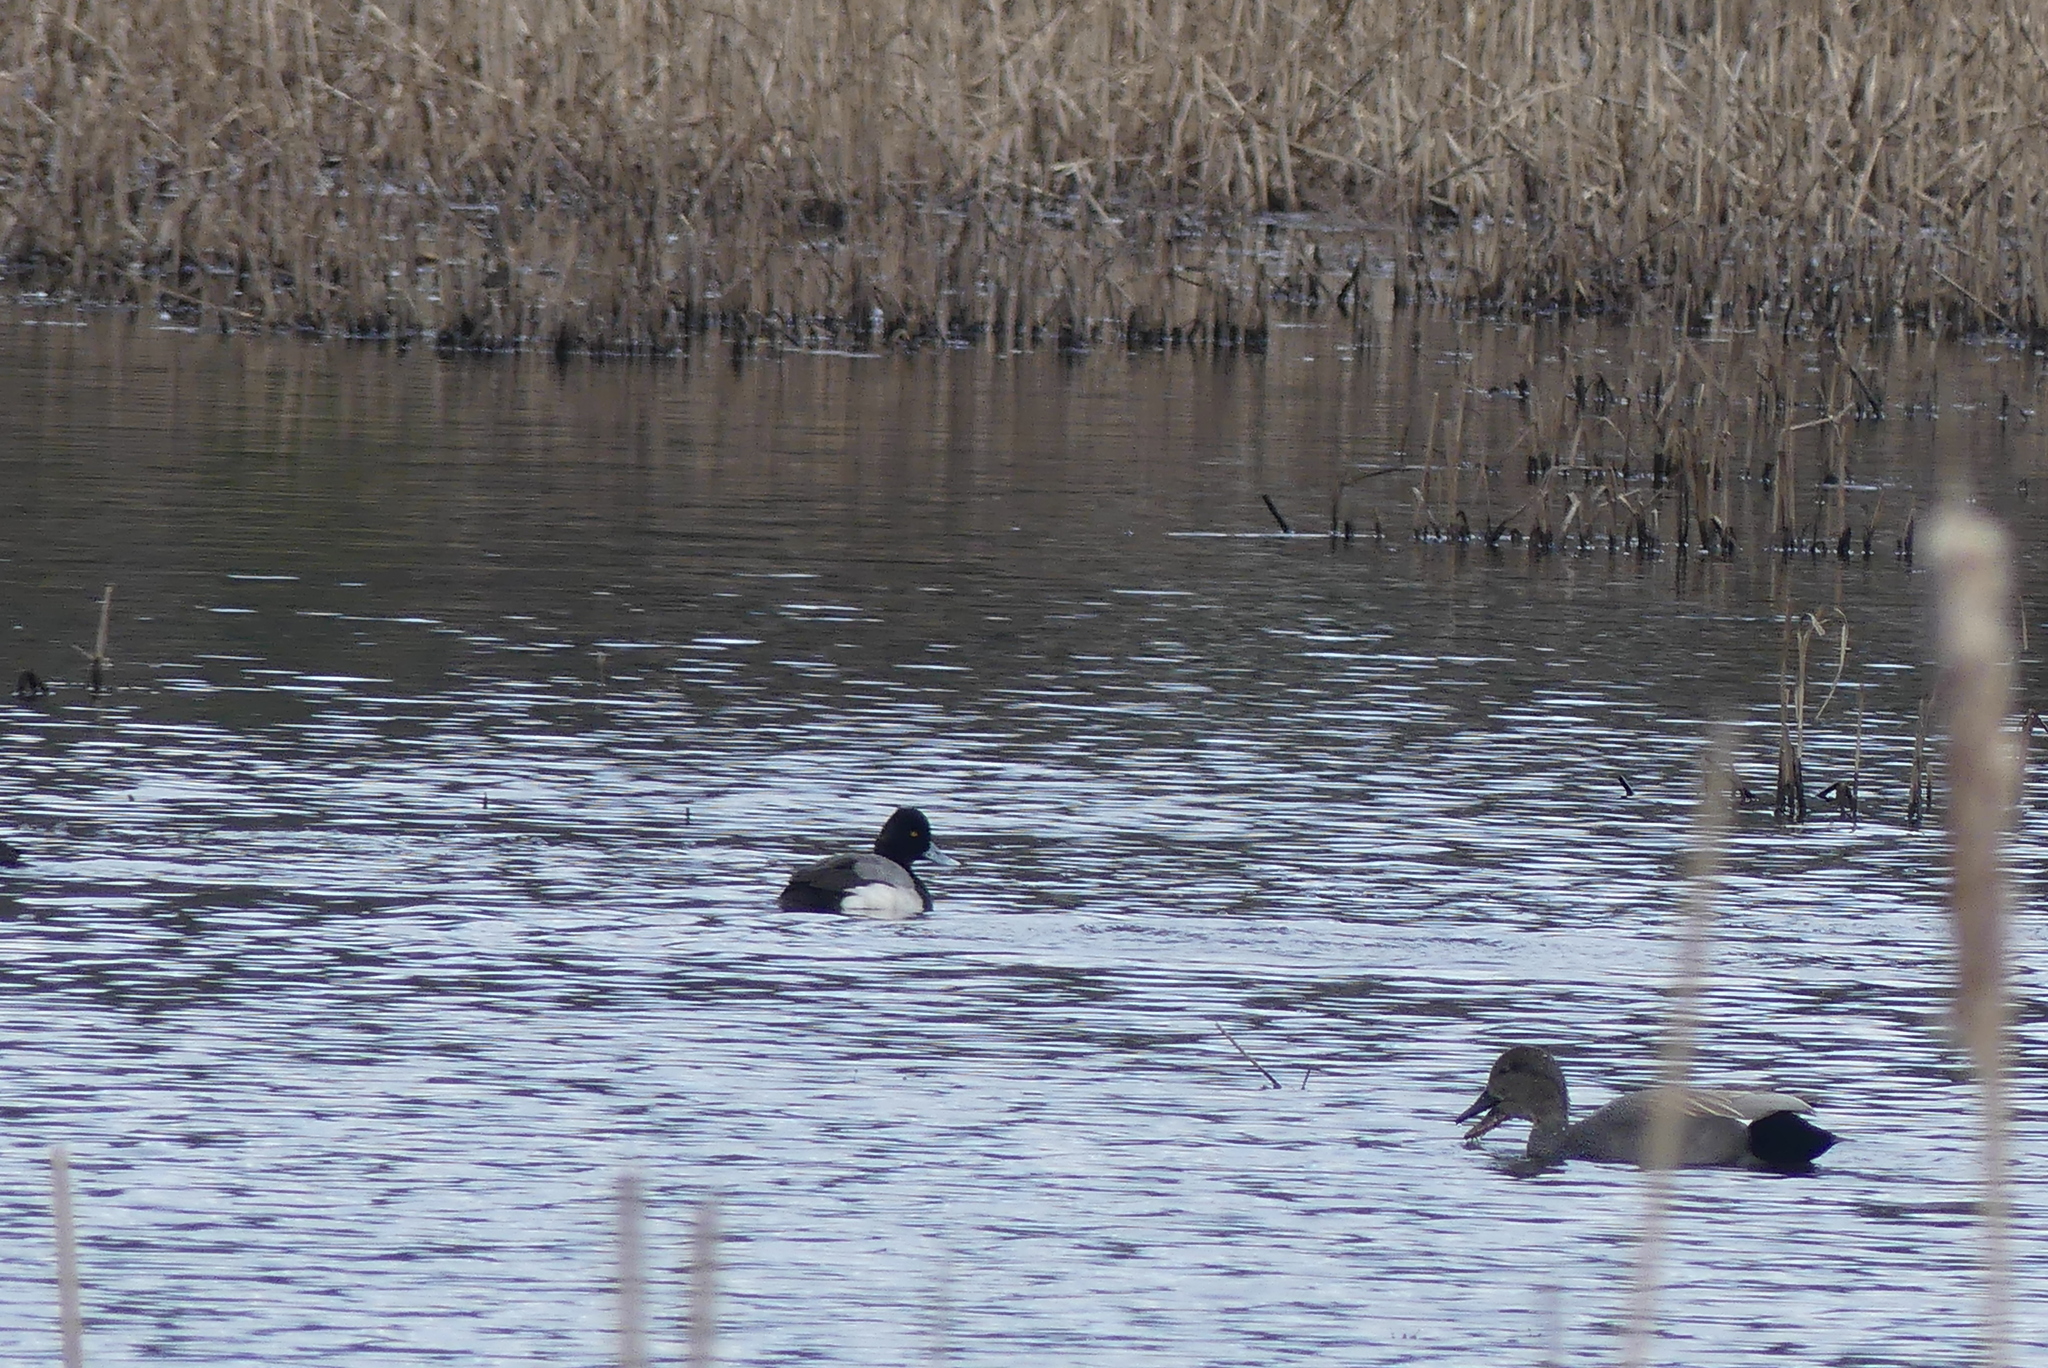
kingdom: Animalia
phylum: Chordata
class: Aves
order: Anseriformes
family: Anatidae
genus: Aythya
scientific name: Aythya affinis
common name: Lesser scaup
